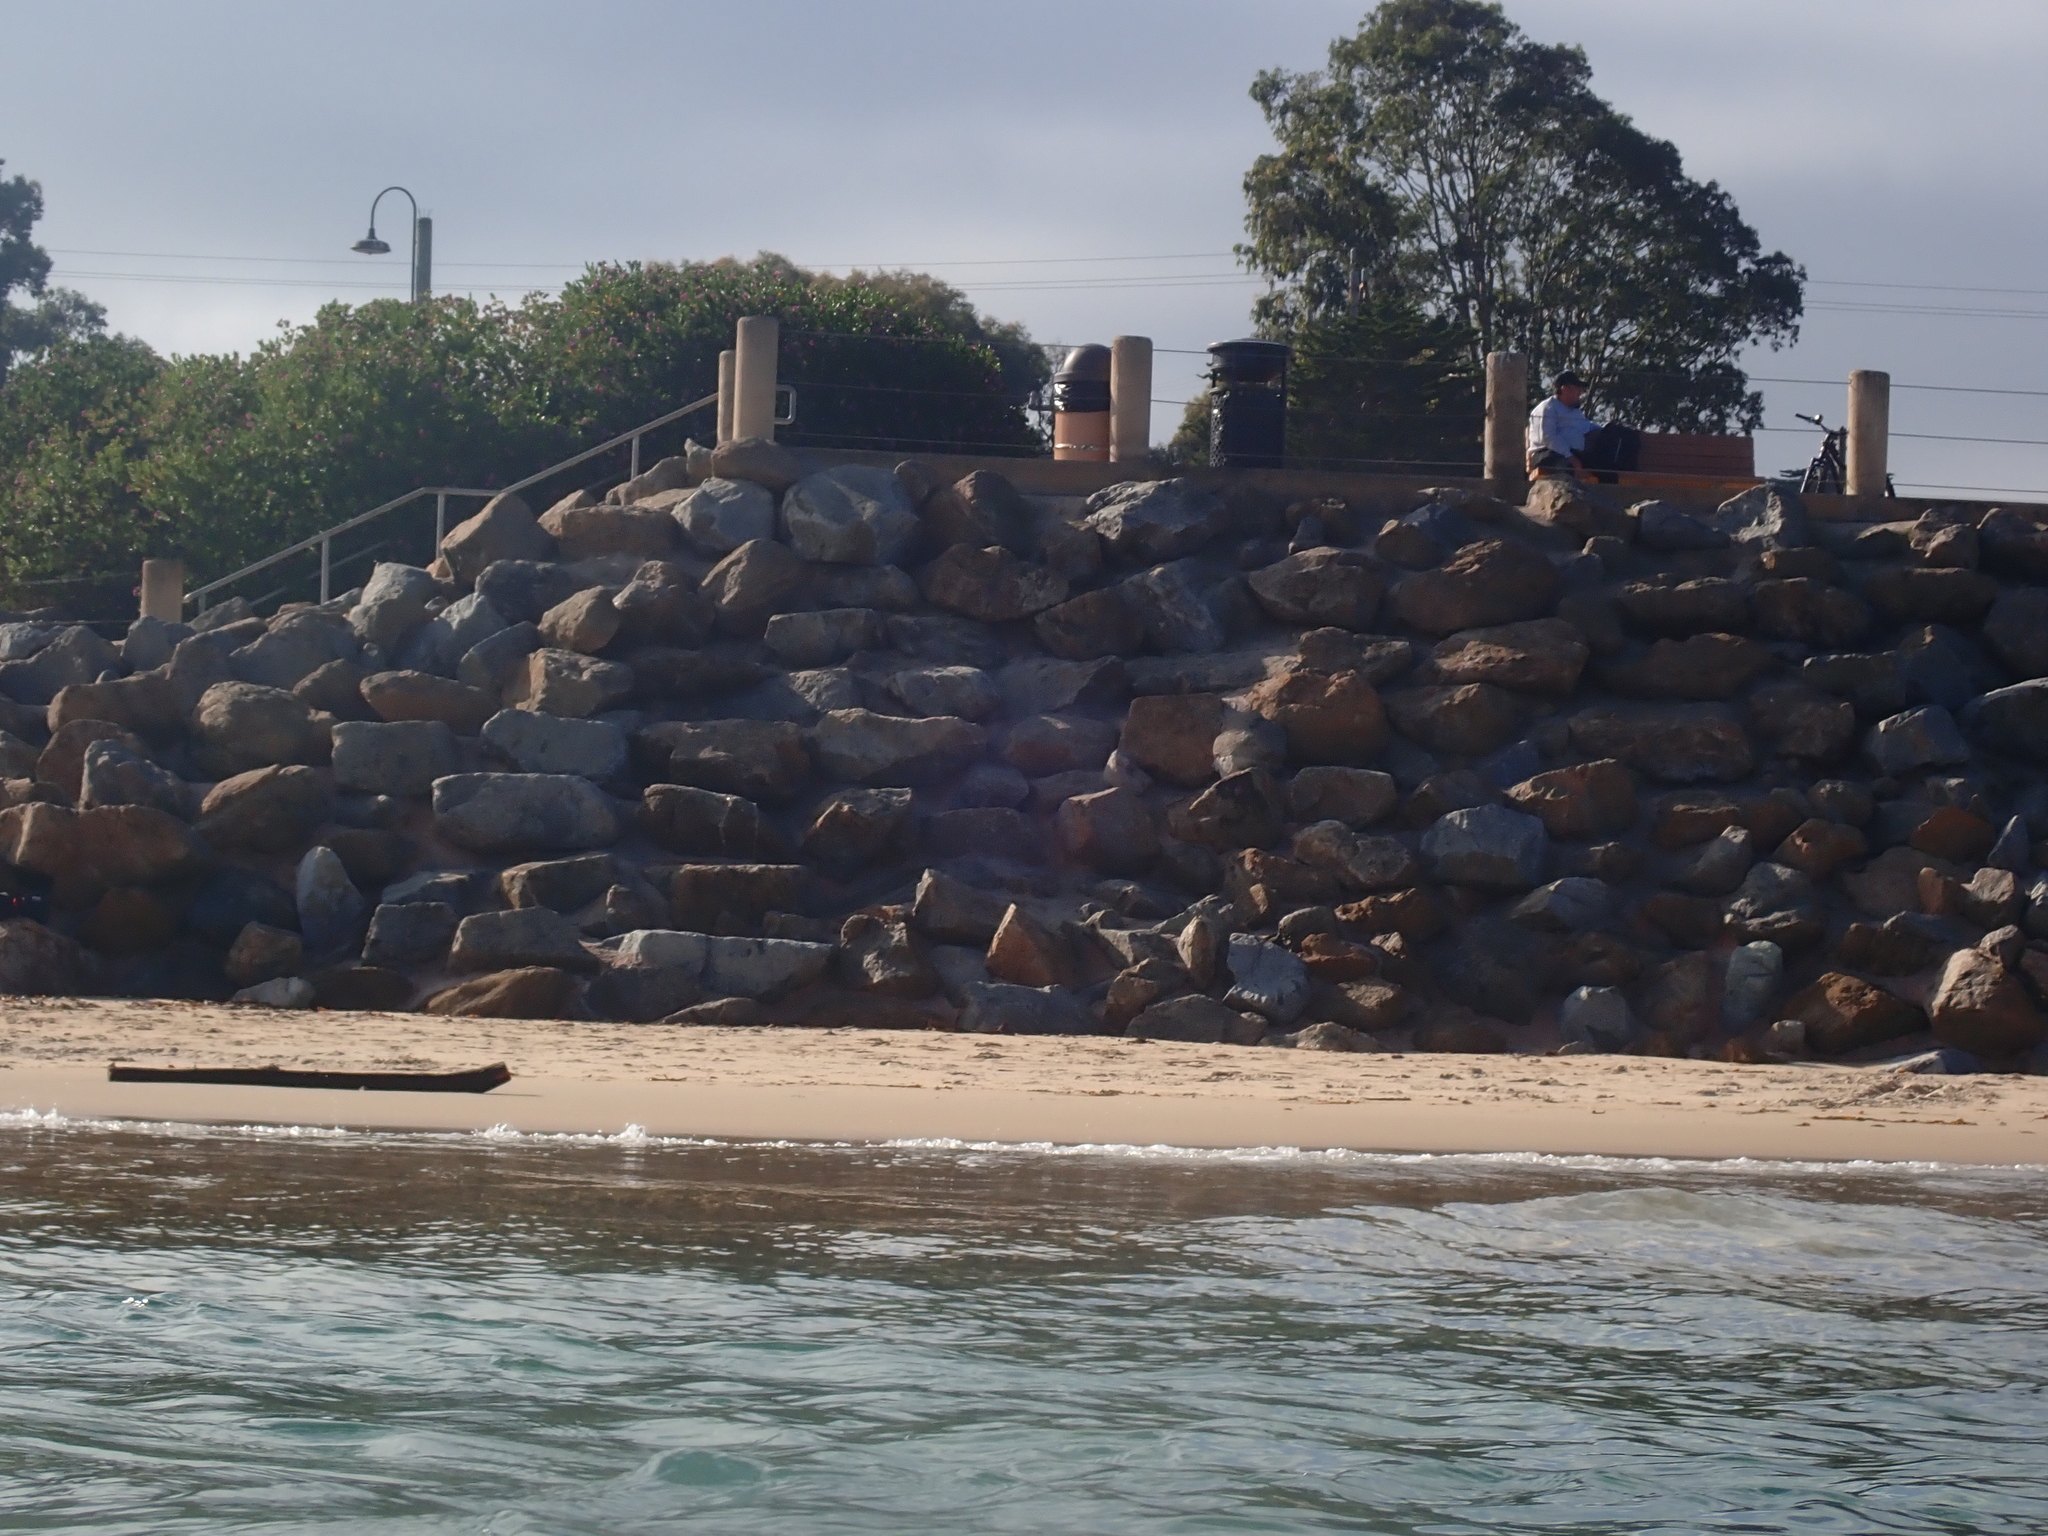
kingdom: Animalia
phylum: Chordata
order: Perciformes
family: Embiotocidae
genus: Embiotoca
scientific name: Embiotoca jacksoni
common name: Black perch
